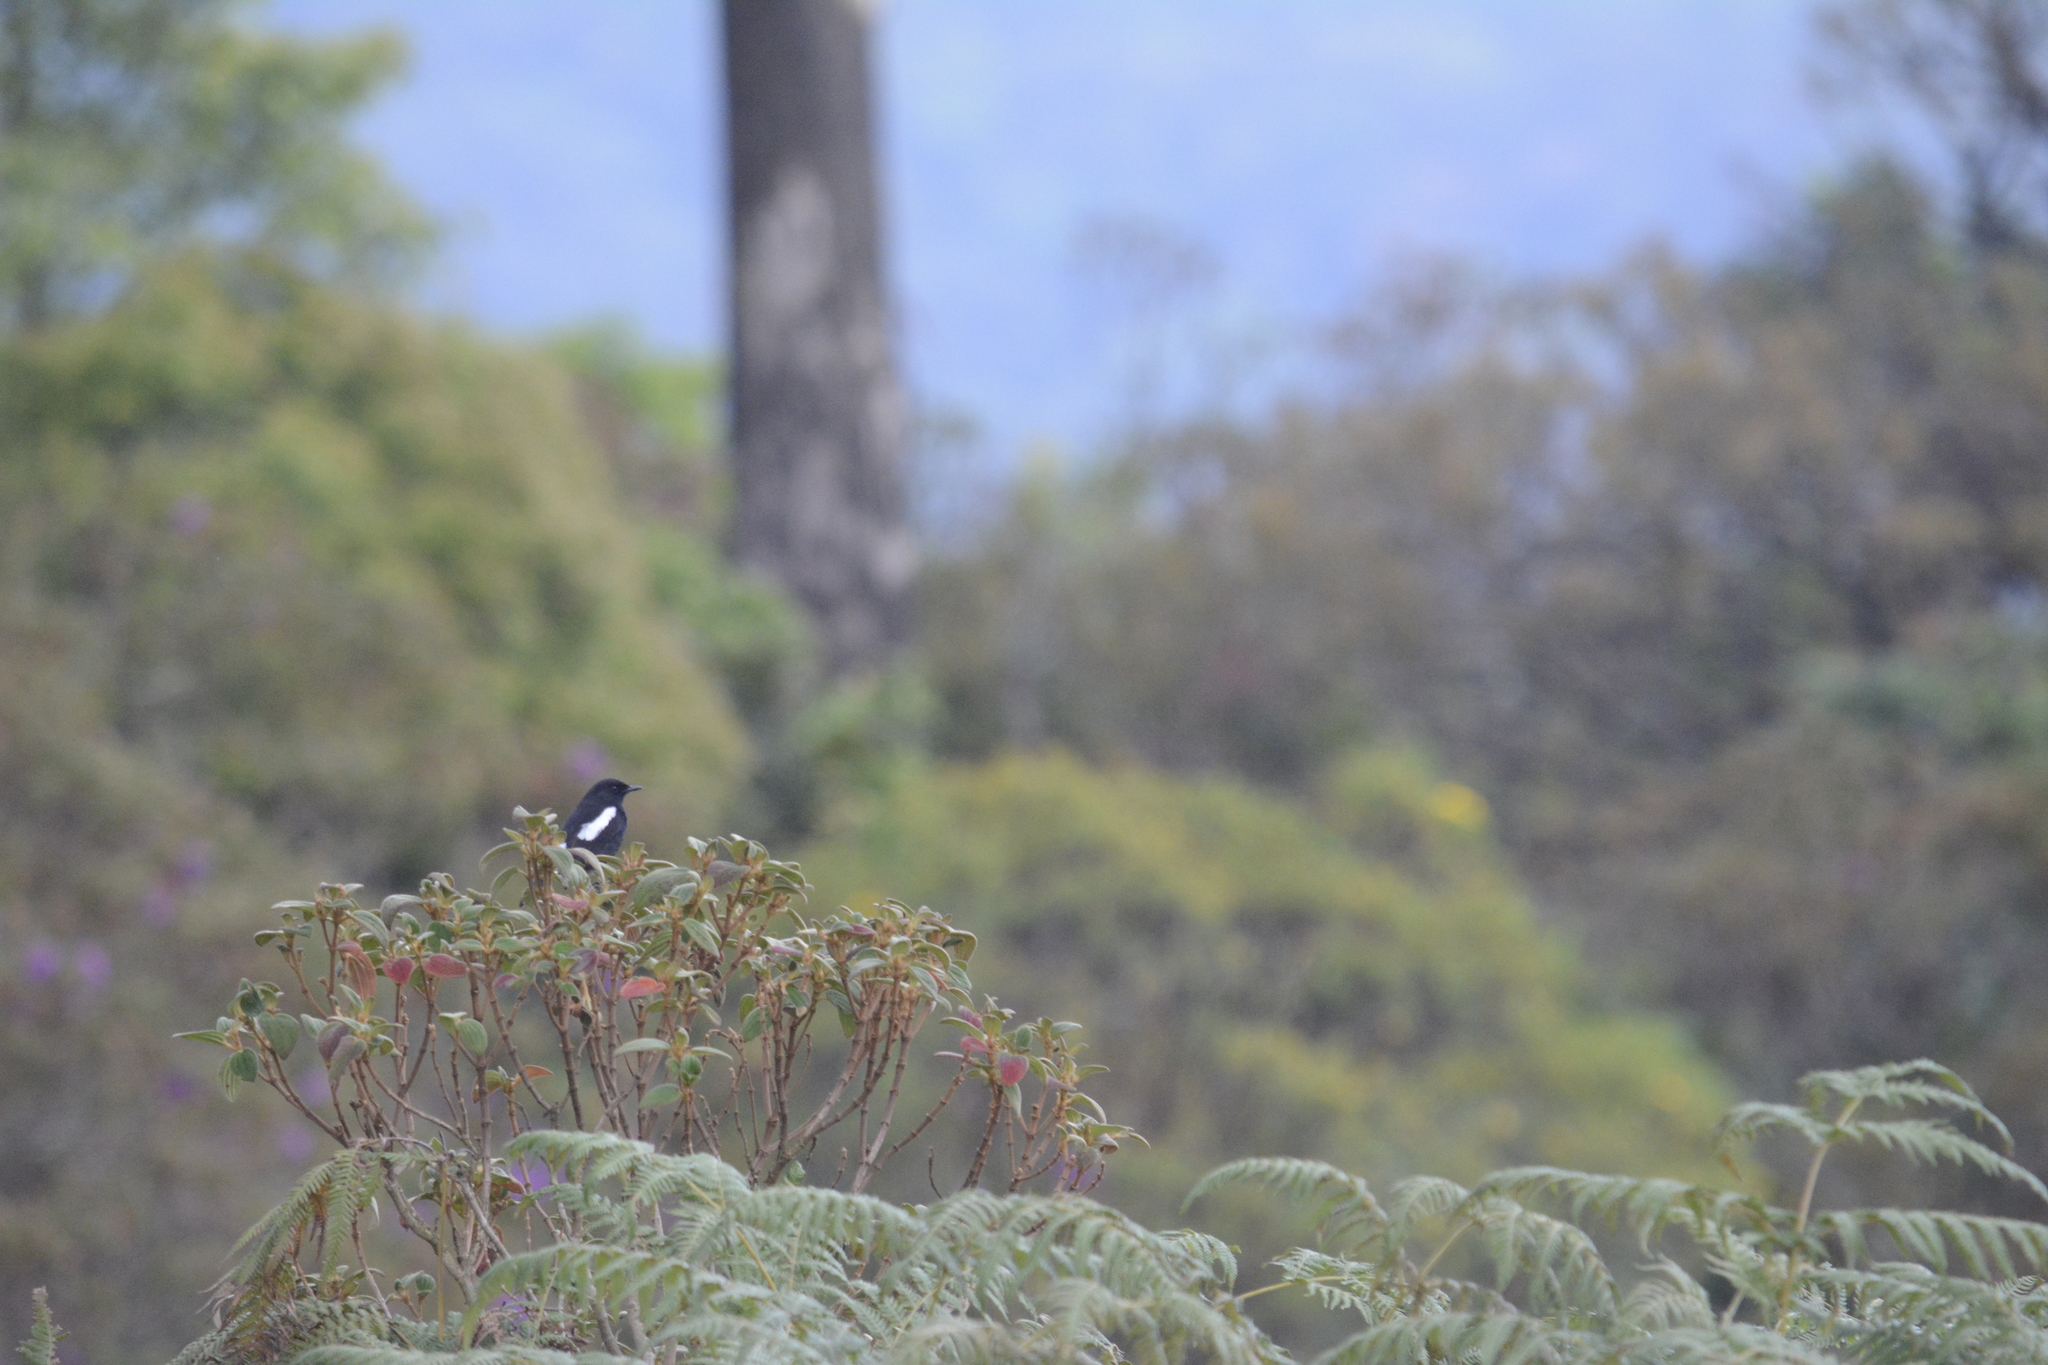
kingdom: Animalia
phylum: Chordata
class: Aves
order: Passeriformes
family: Muscicapidae
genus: Saxicola
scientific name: Saxicola caprata
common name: Pied bush chat
